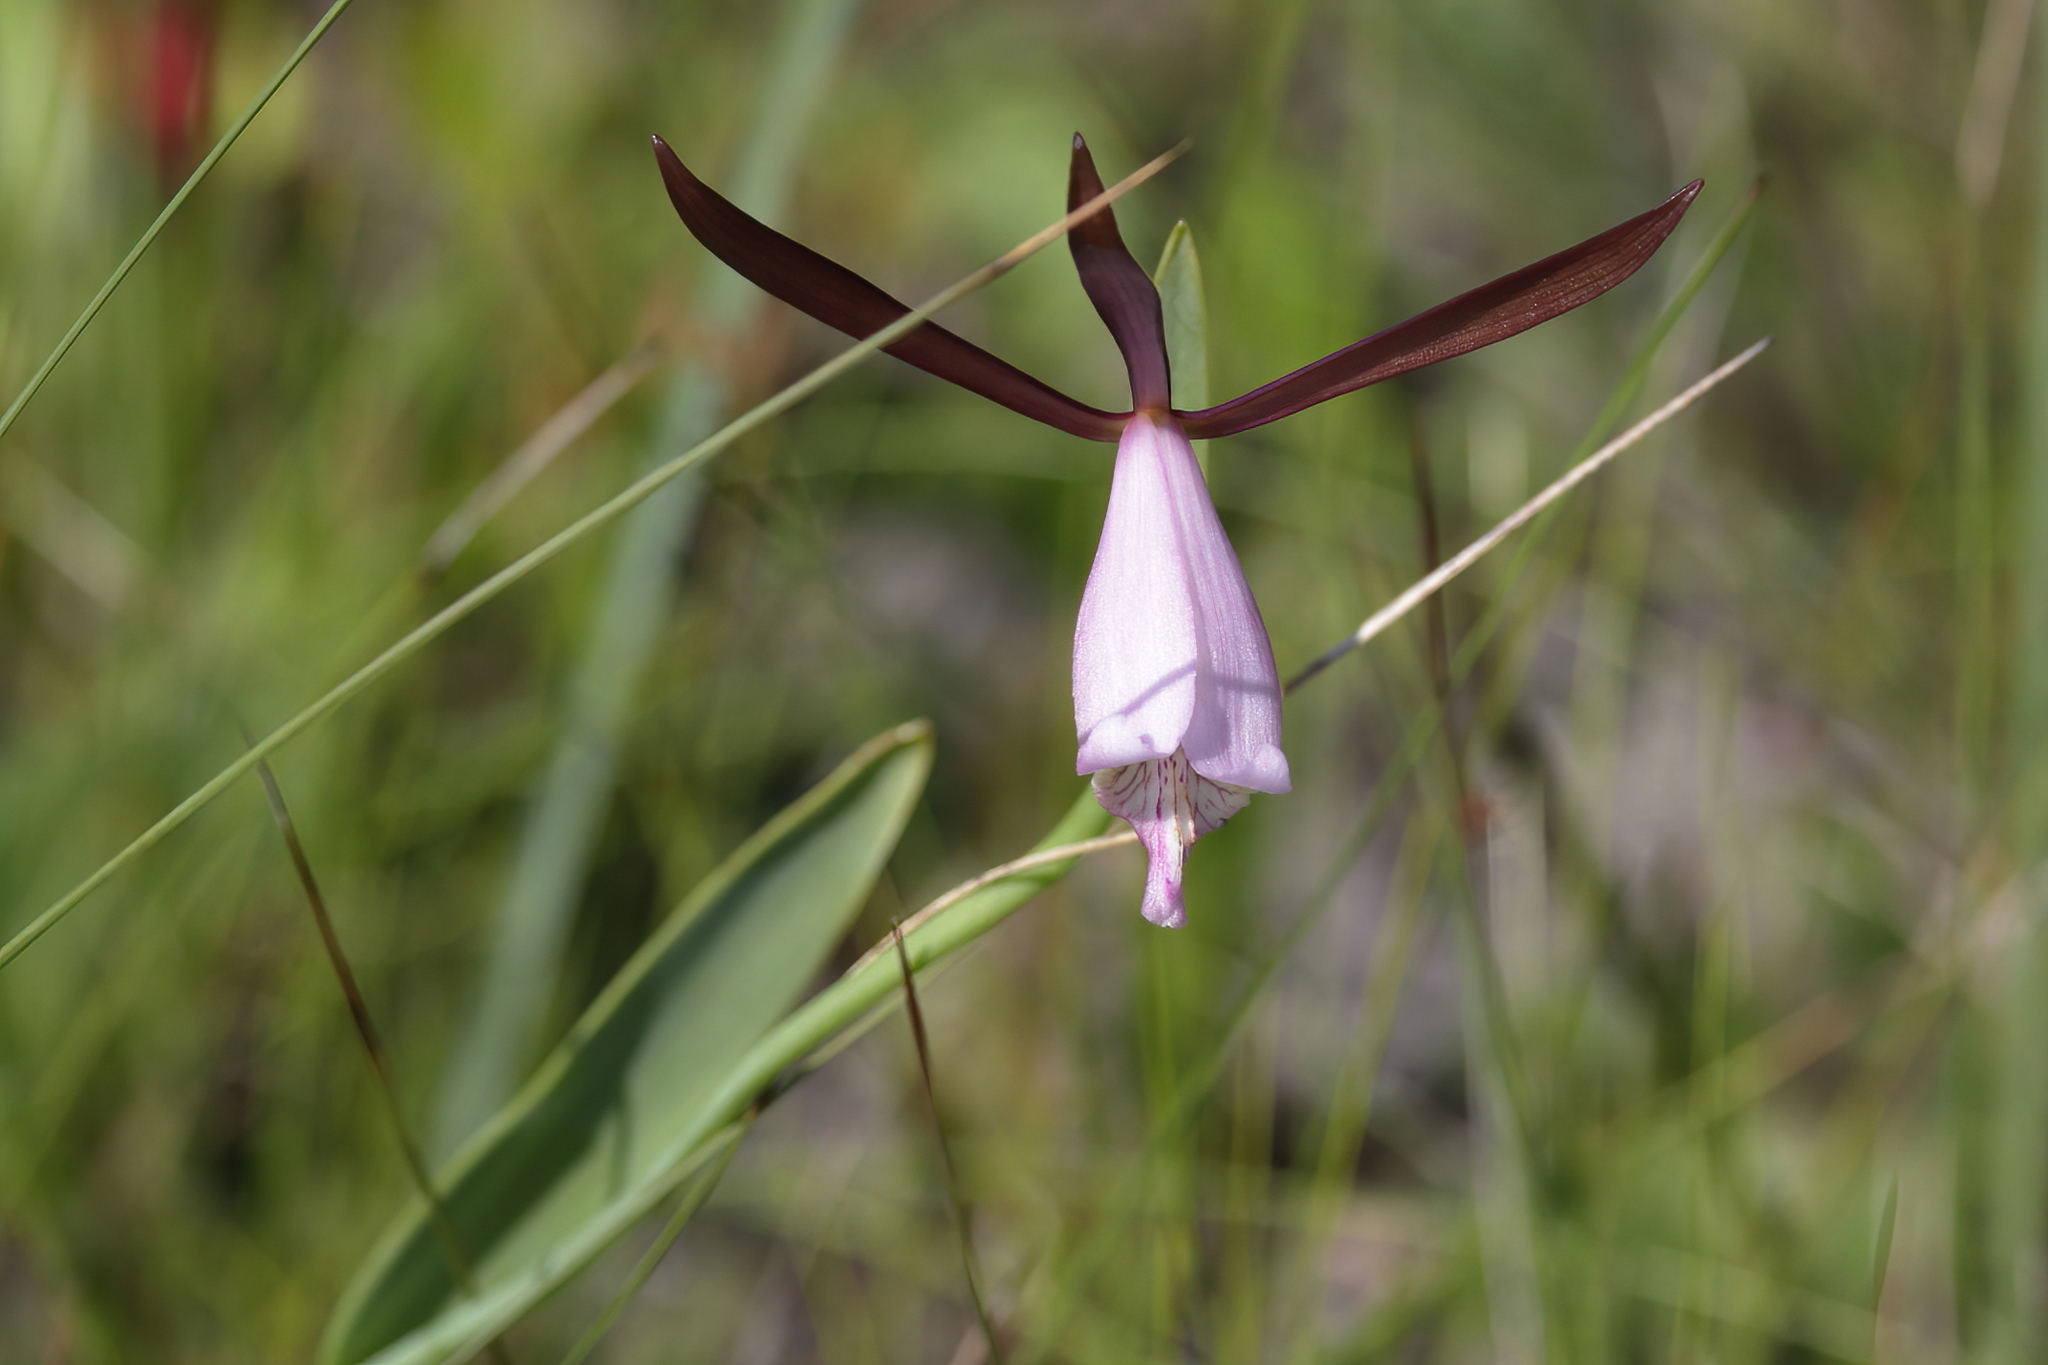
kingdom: Plantae
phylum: Tracheophyta
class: Liliopsida
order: Asparagales
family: Orchidaceae
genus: Cleistesiopsis
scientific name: Cleistesiopsis oricamporum
